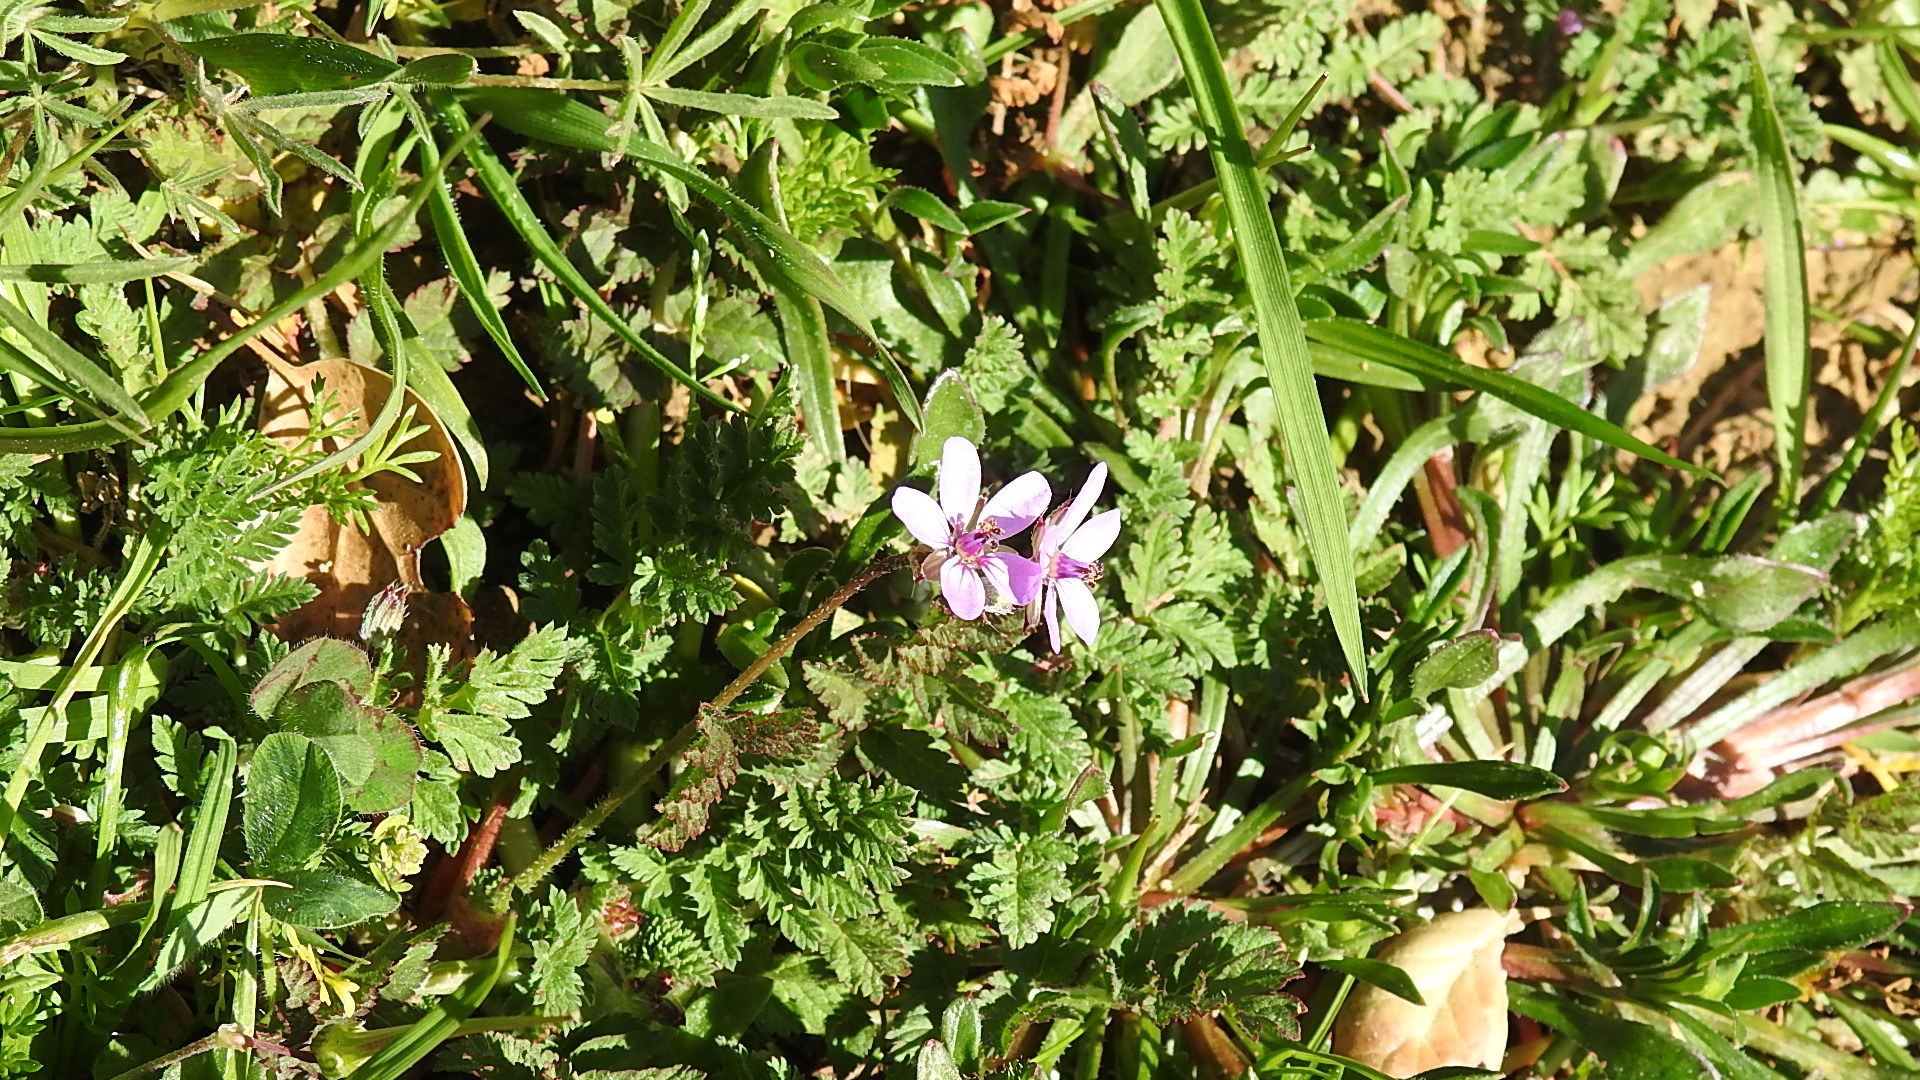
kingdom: Plantae
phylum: Tracheophyta
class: Magnoliopsida
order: Geraniales
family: Geraniaceae
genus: Erodium
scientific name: Erodium cicutarium
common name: Common stork's-bill
